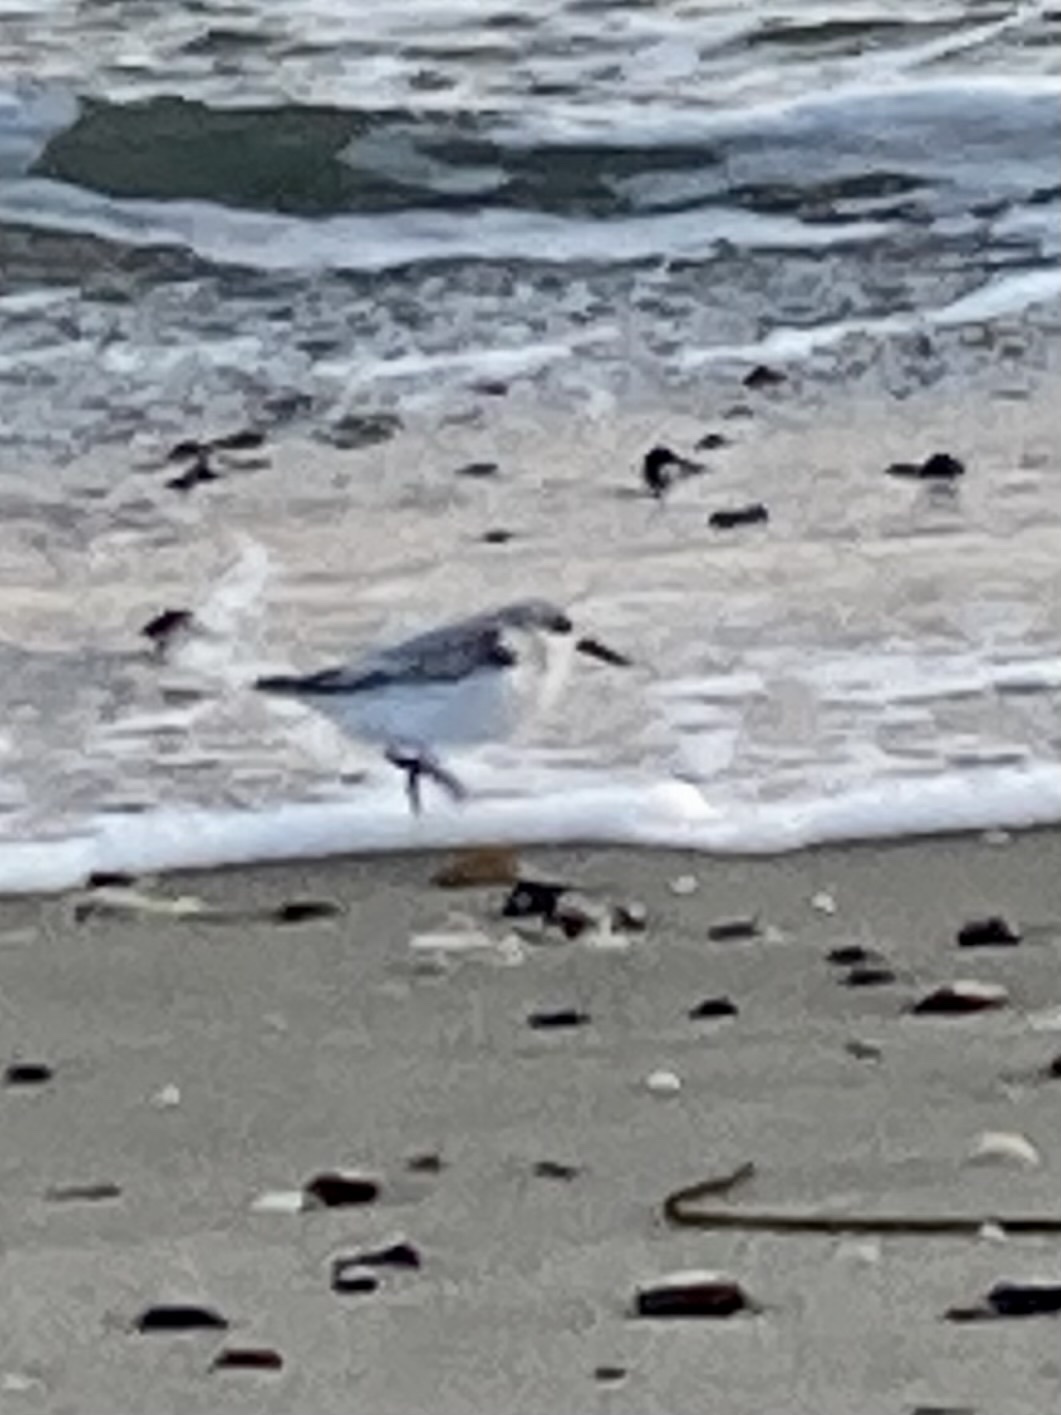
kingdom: Animalia
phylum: Chordata
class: Aves
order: Charadriiformes
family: Scolopacidae
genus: Calidris
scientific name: Calidris alba
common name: Sanderling
